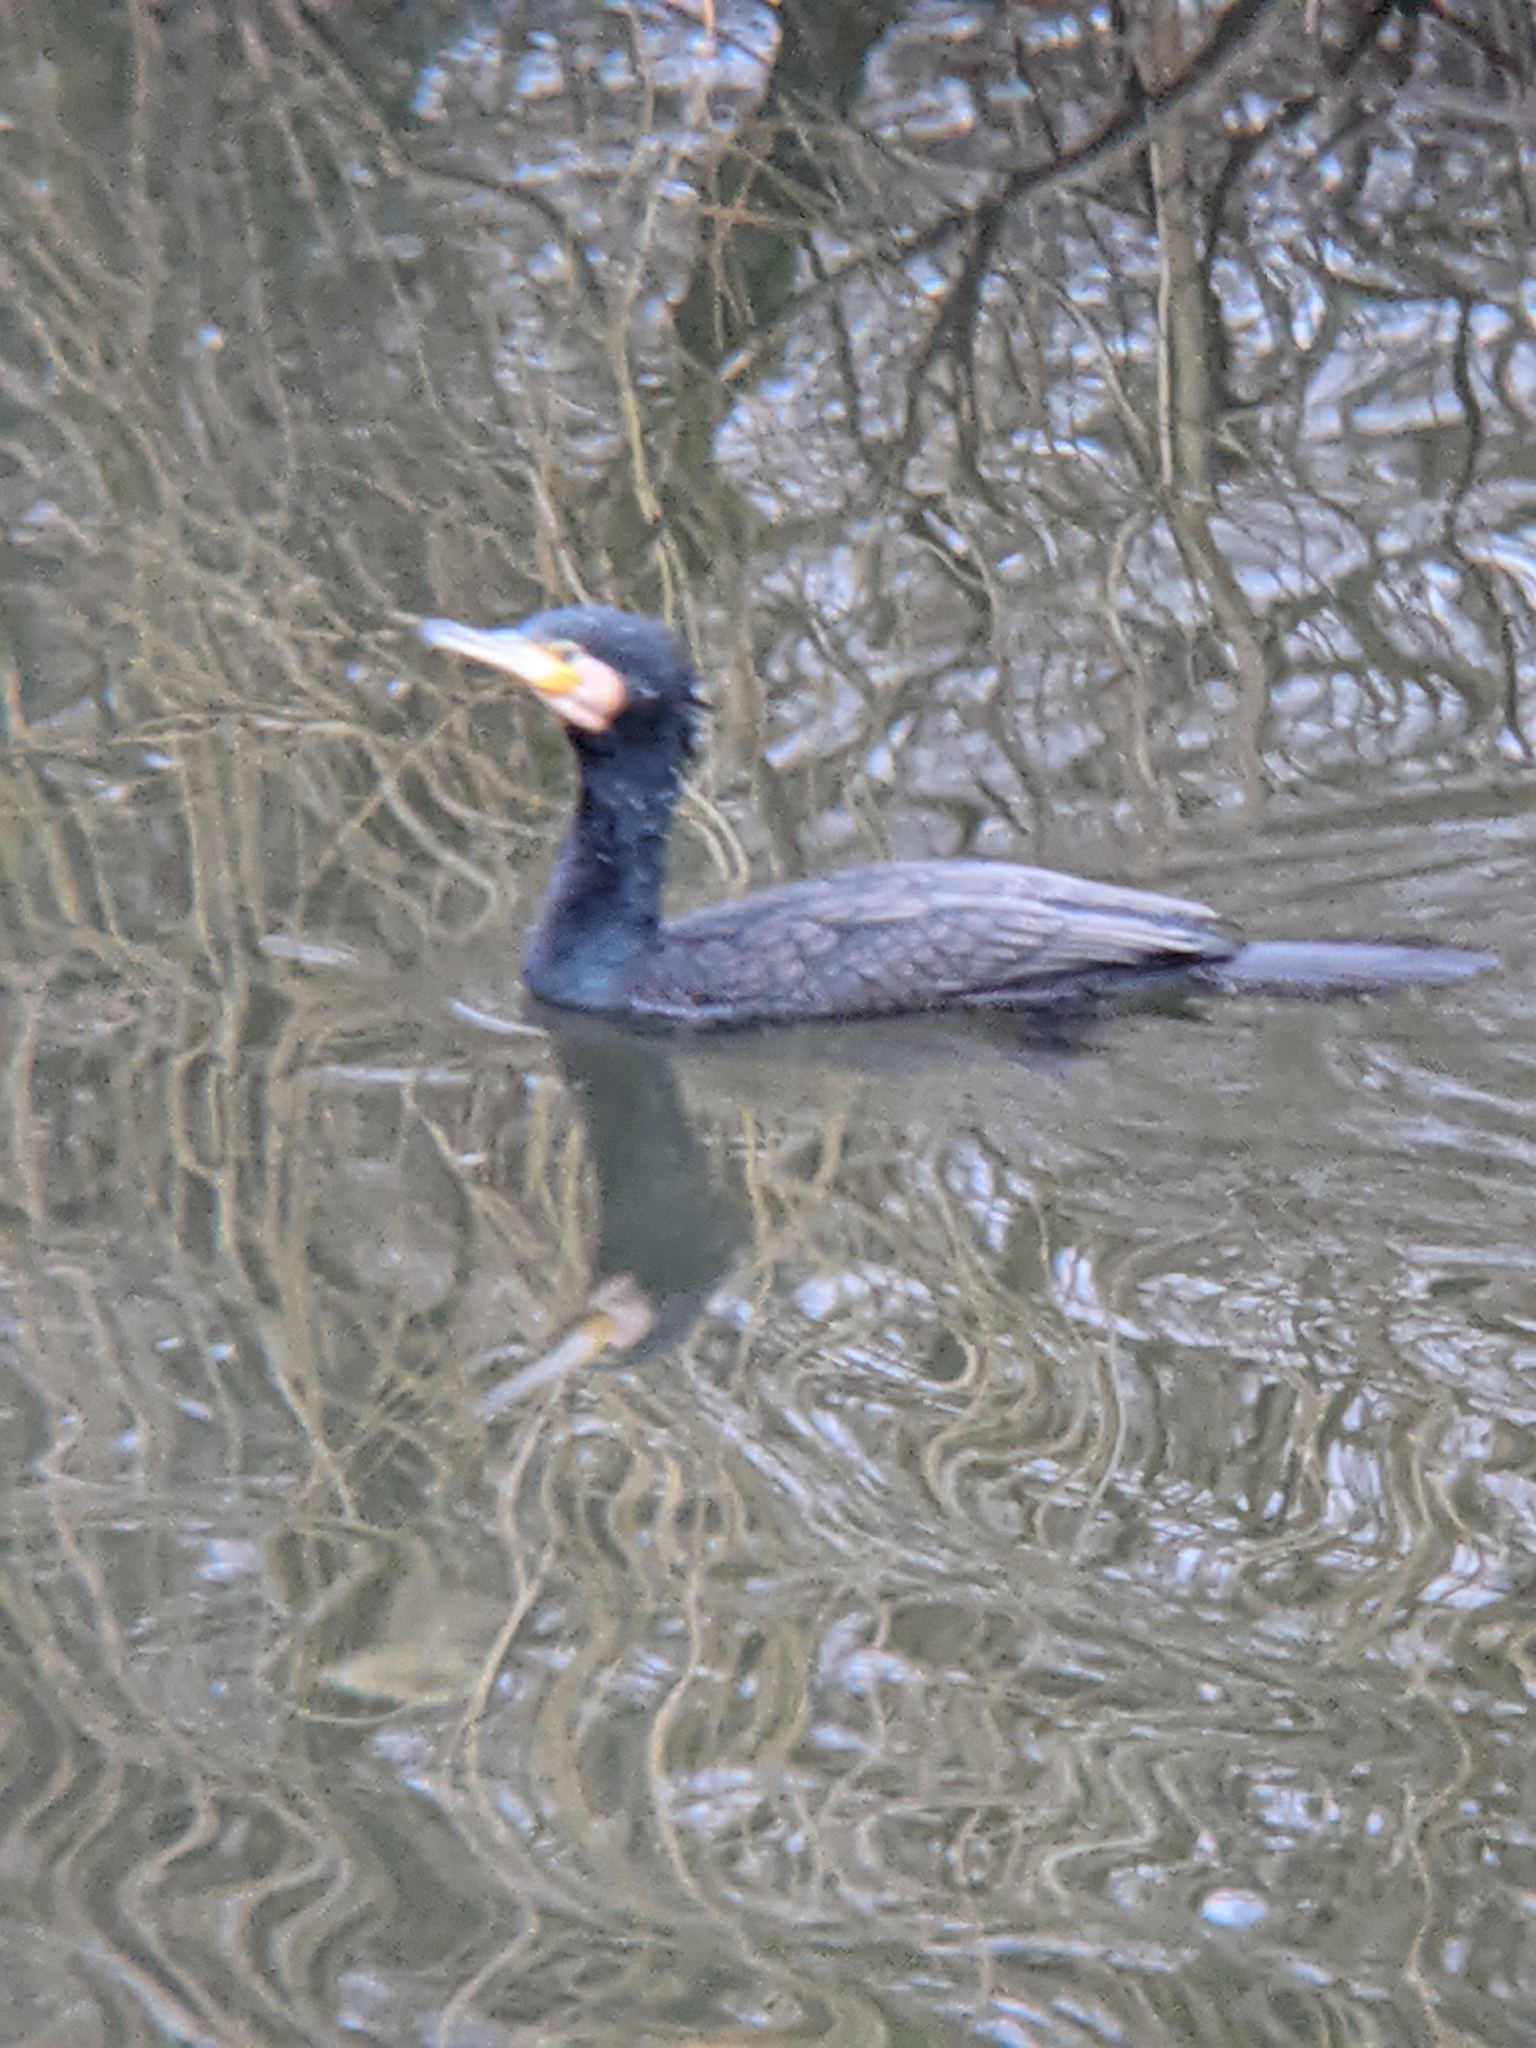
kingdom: Animalia
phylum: Chordata
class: Aves
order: Suliformes
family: Phalacrocoracidae
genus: Phalacrocorax
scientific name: Phalacrocorax carbo
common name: Great cormorant
